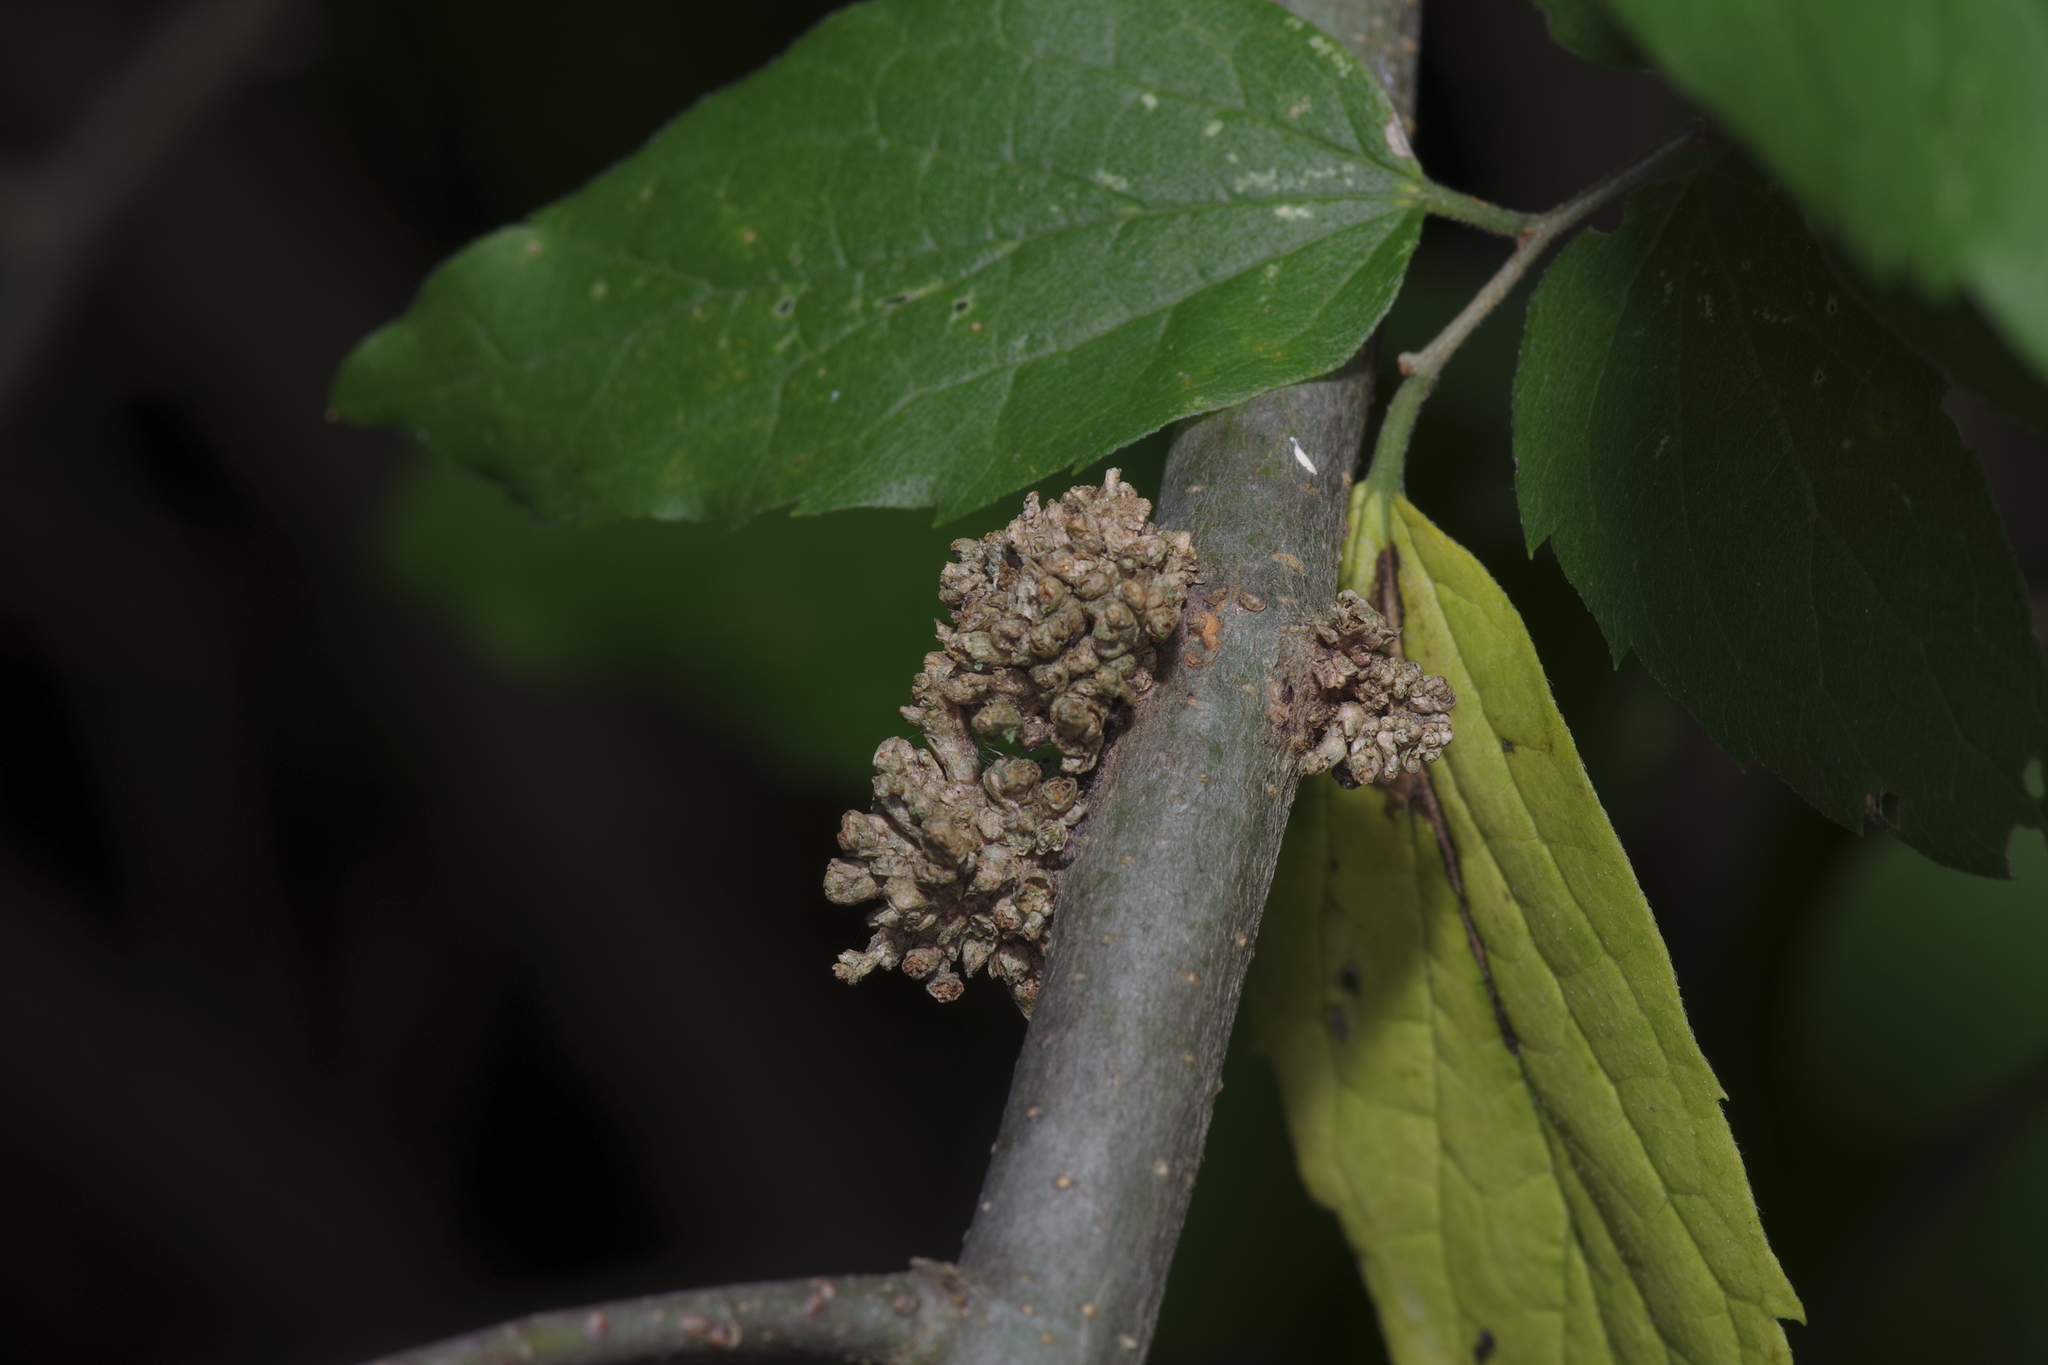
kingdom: Animalia
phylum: Arthropoda
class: Arachnida
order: Trombidiformes
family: Eriophyidae
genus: Aceria
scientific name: Aceria
